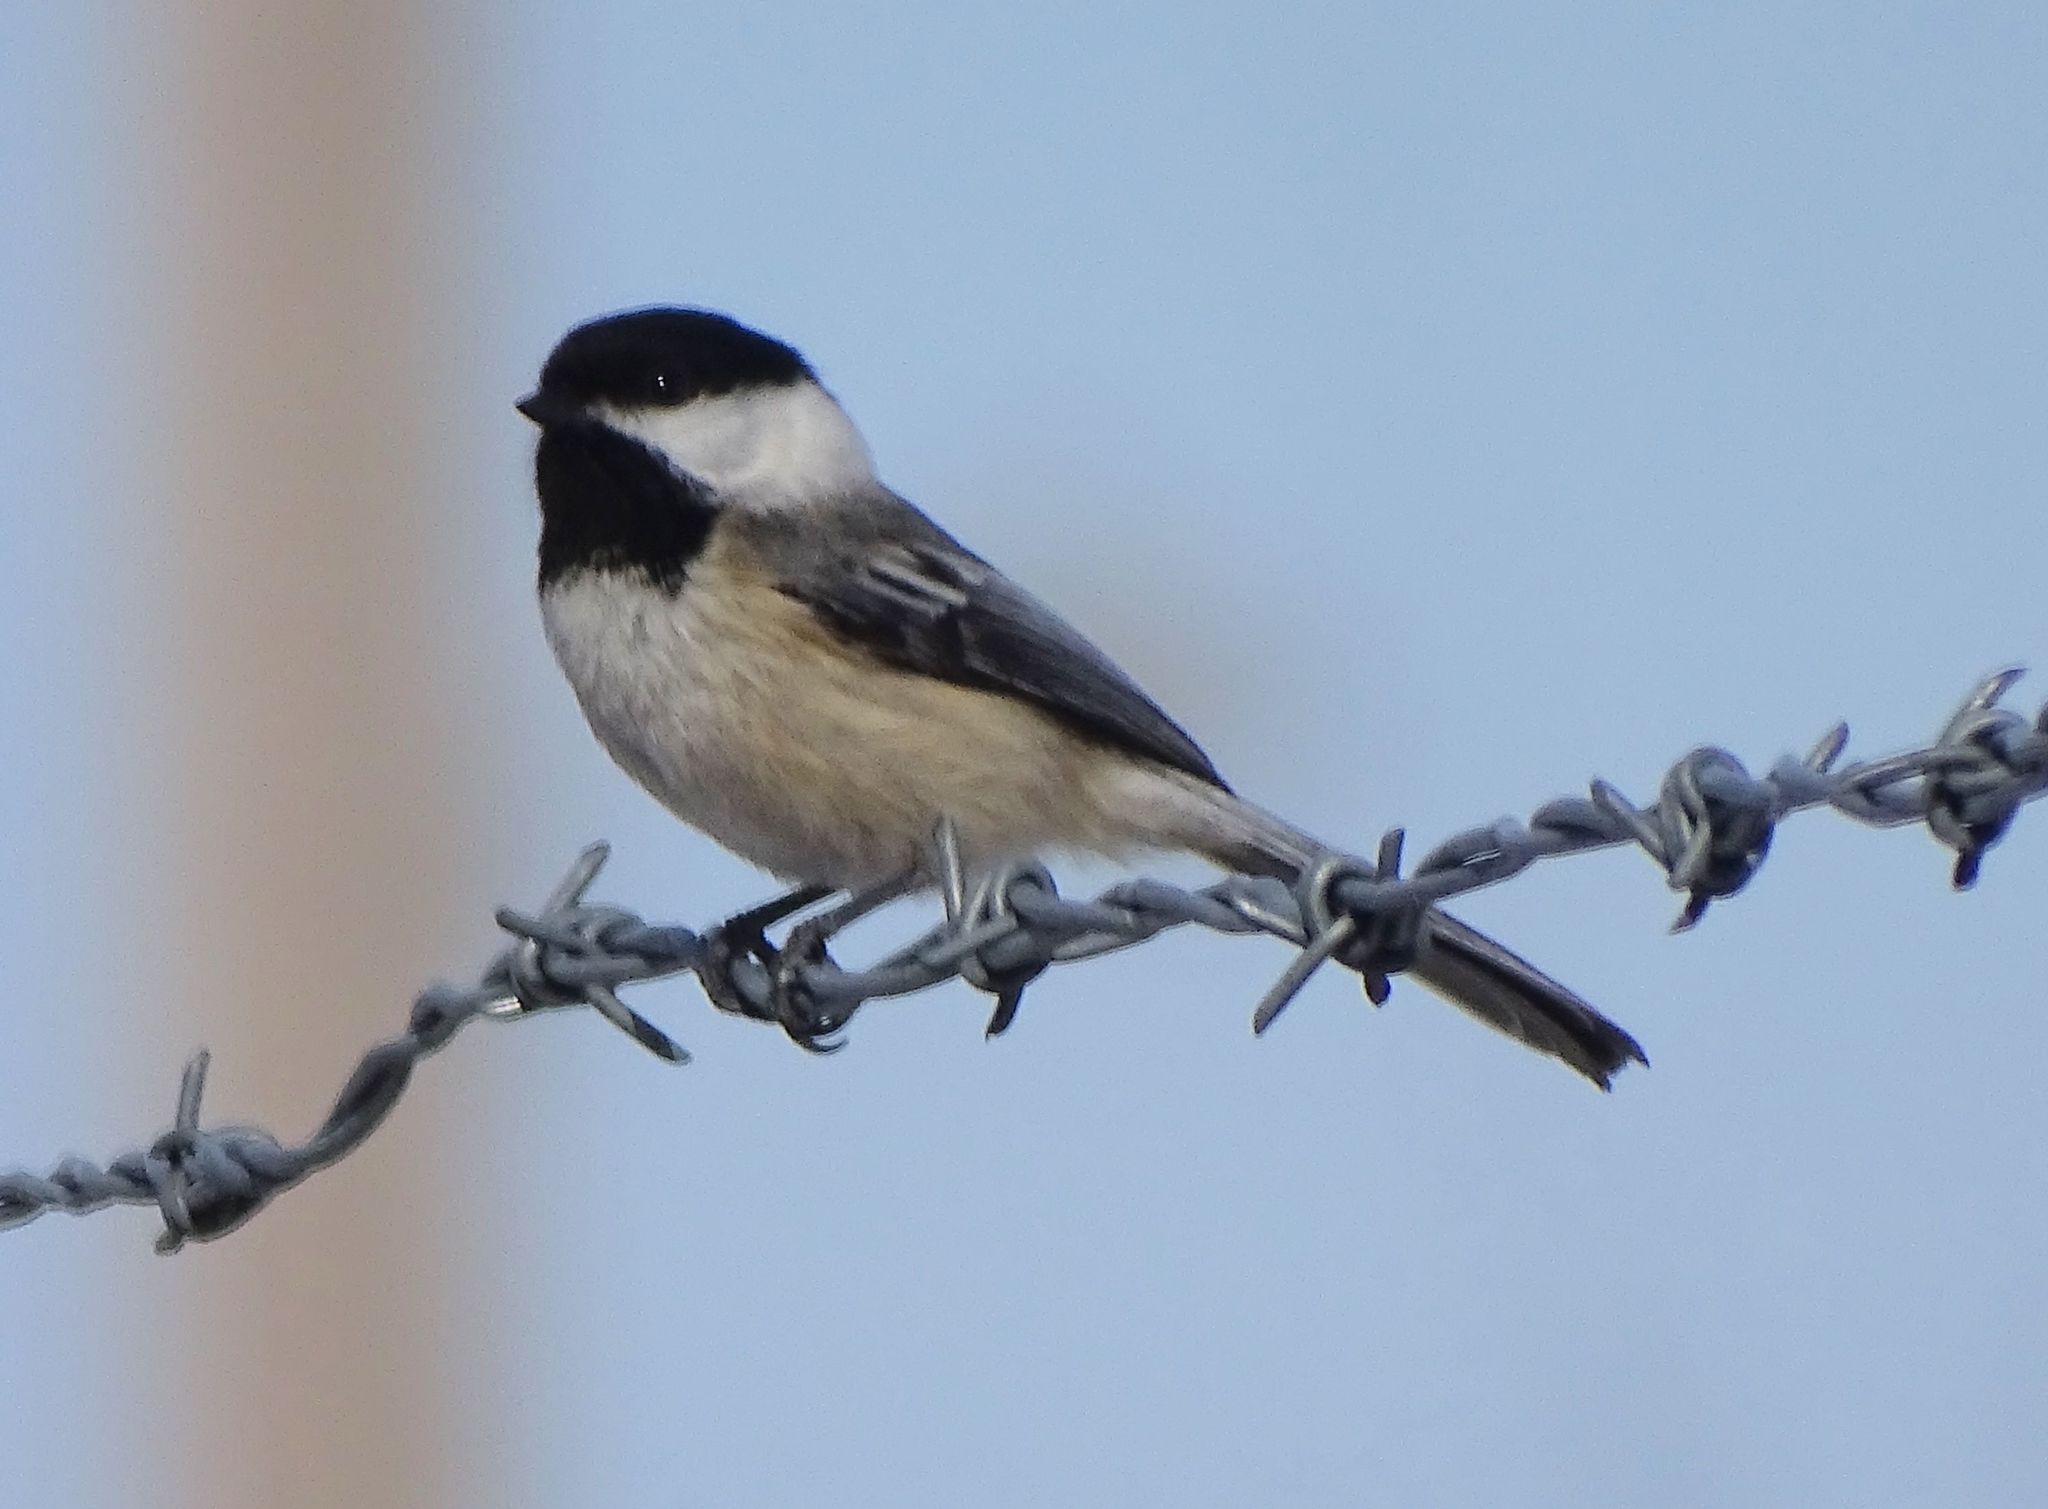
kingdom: Animalia
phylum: Chordata
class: Aves
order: Passeriformes
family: Paridae
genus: Poecile
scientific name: Poecile atricapillus
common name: Black-capped chickadee
